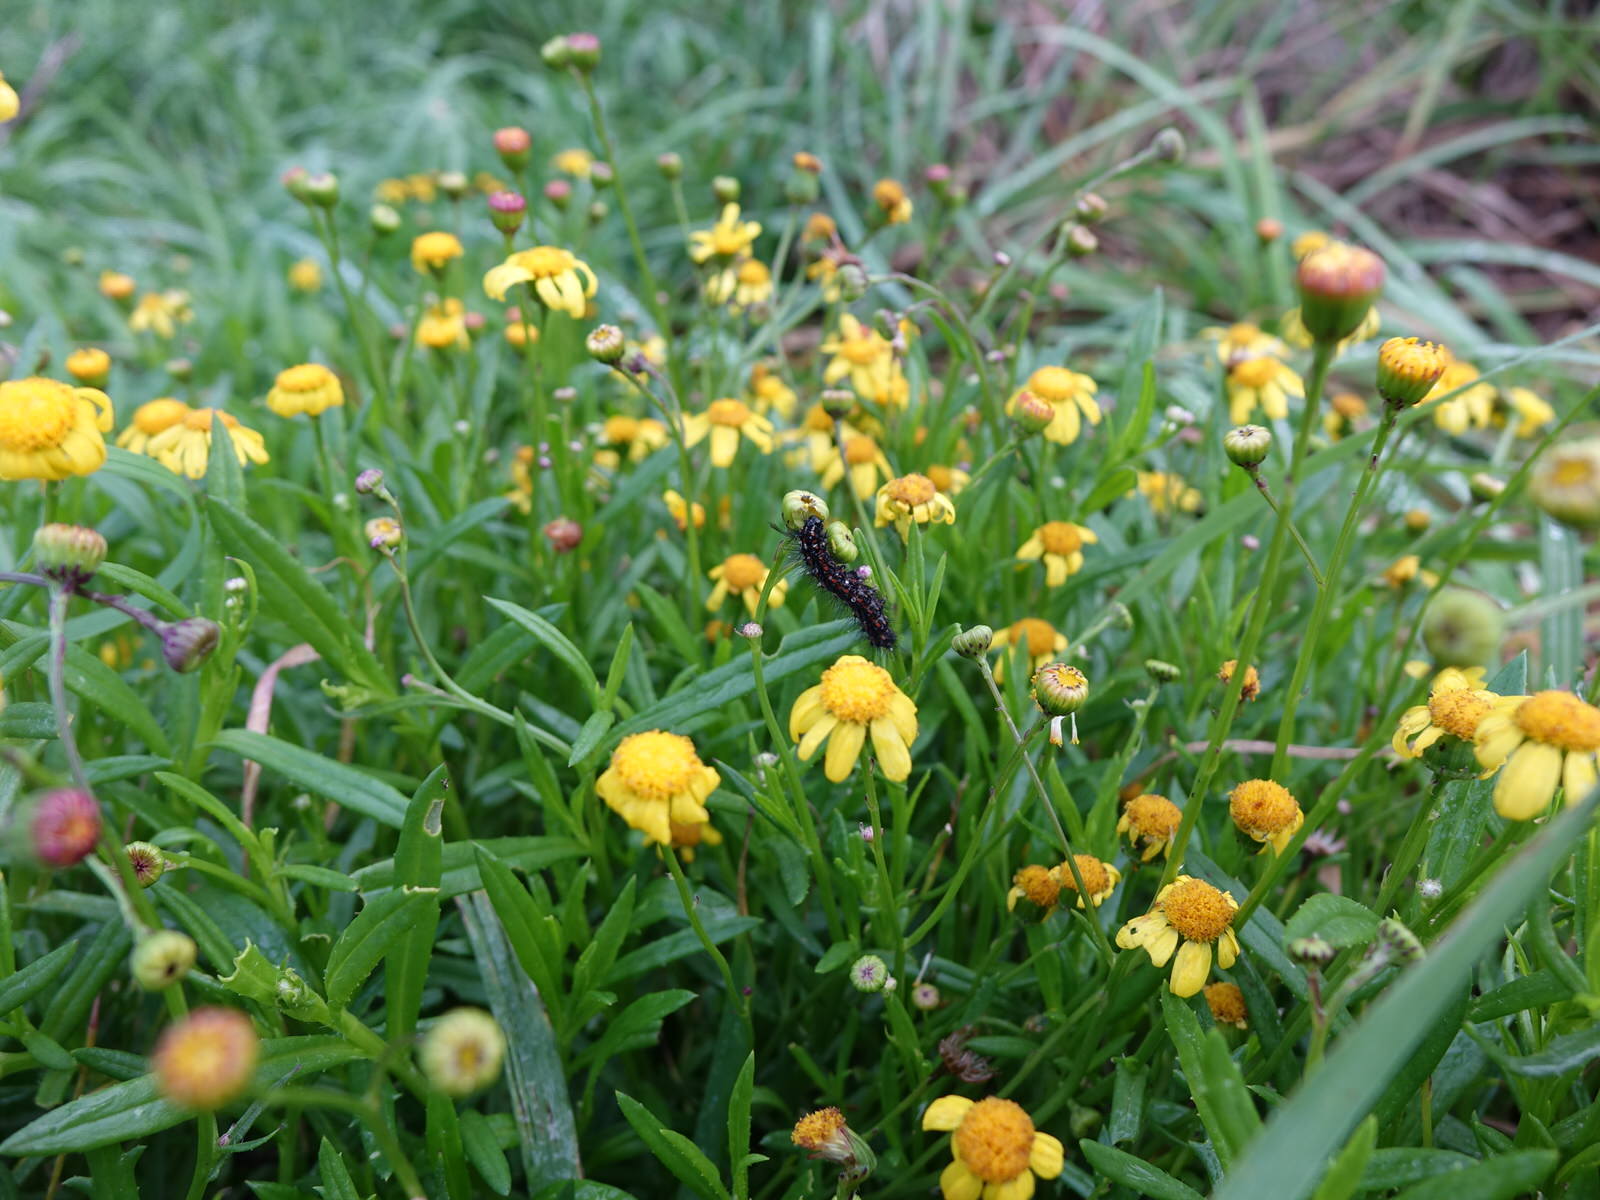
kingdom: Animalia
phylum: Arthropoda
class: Insecta
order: Lepidoptera
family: Erebidae
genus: Nyctemera
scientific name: Nyctemera amicus
